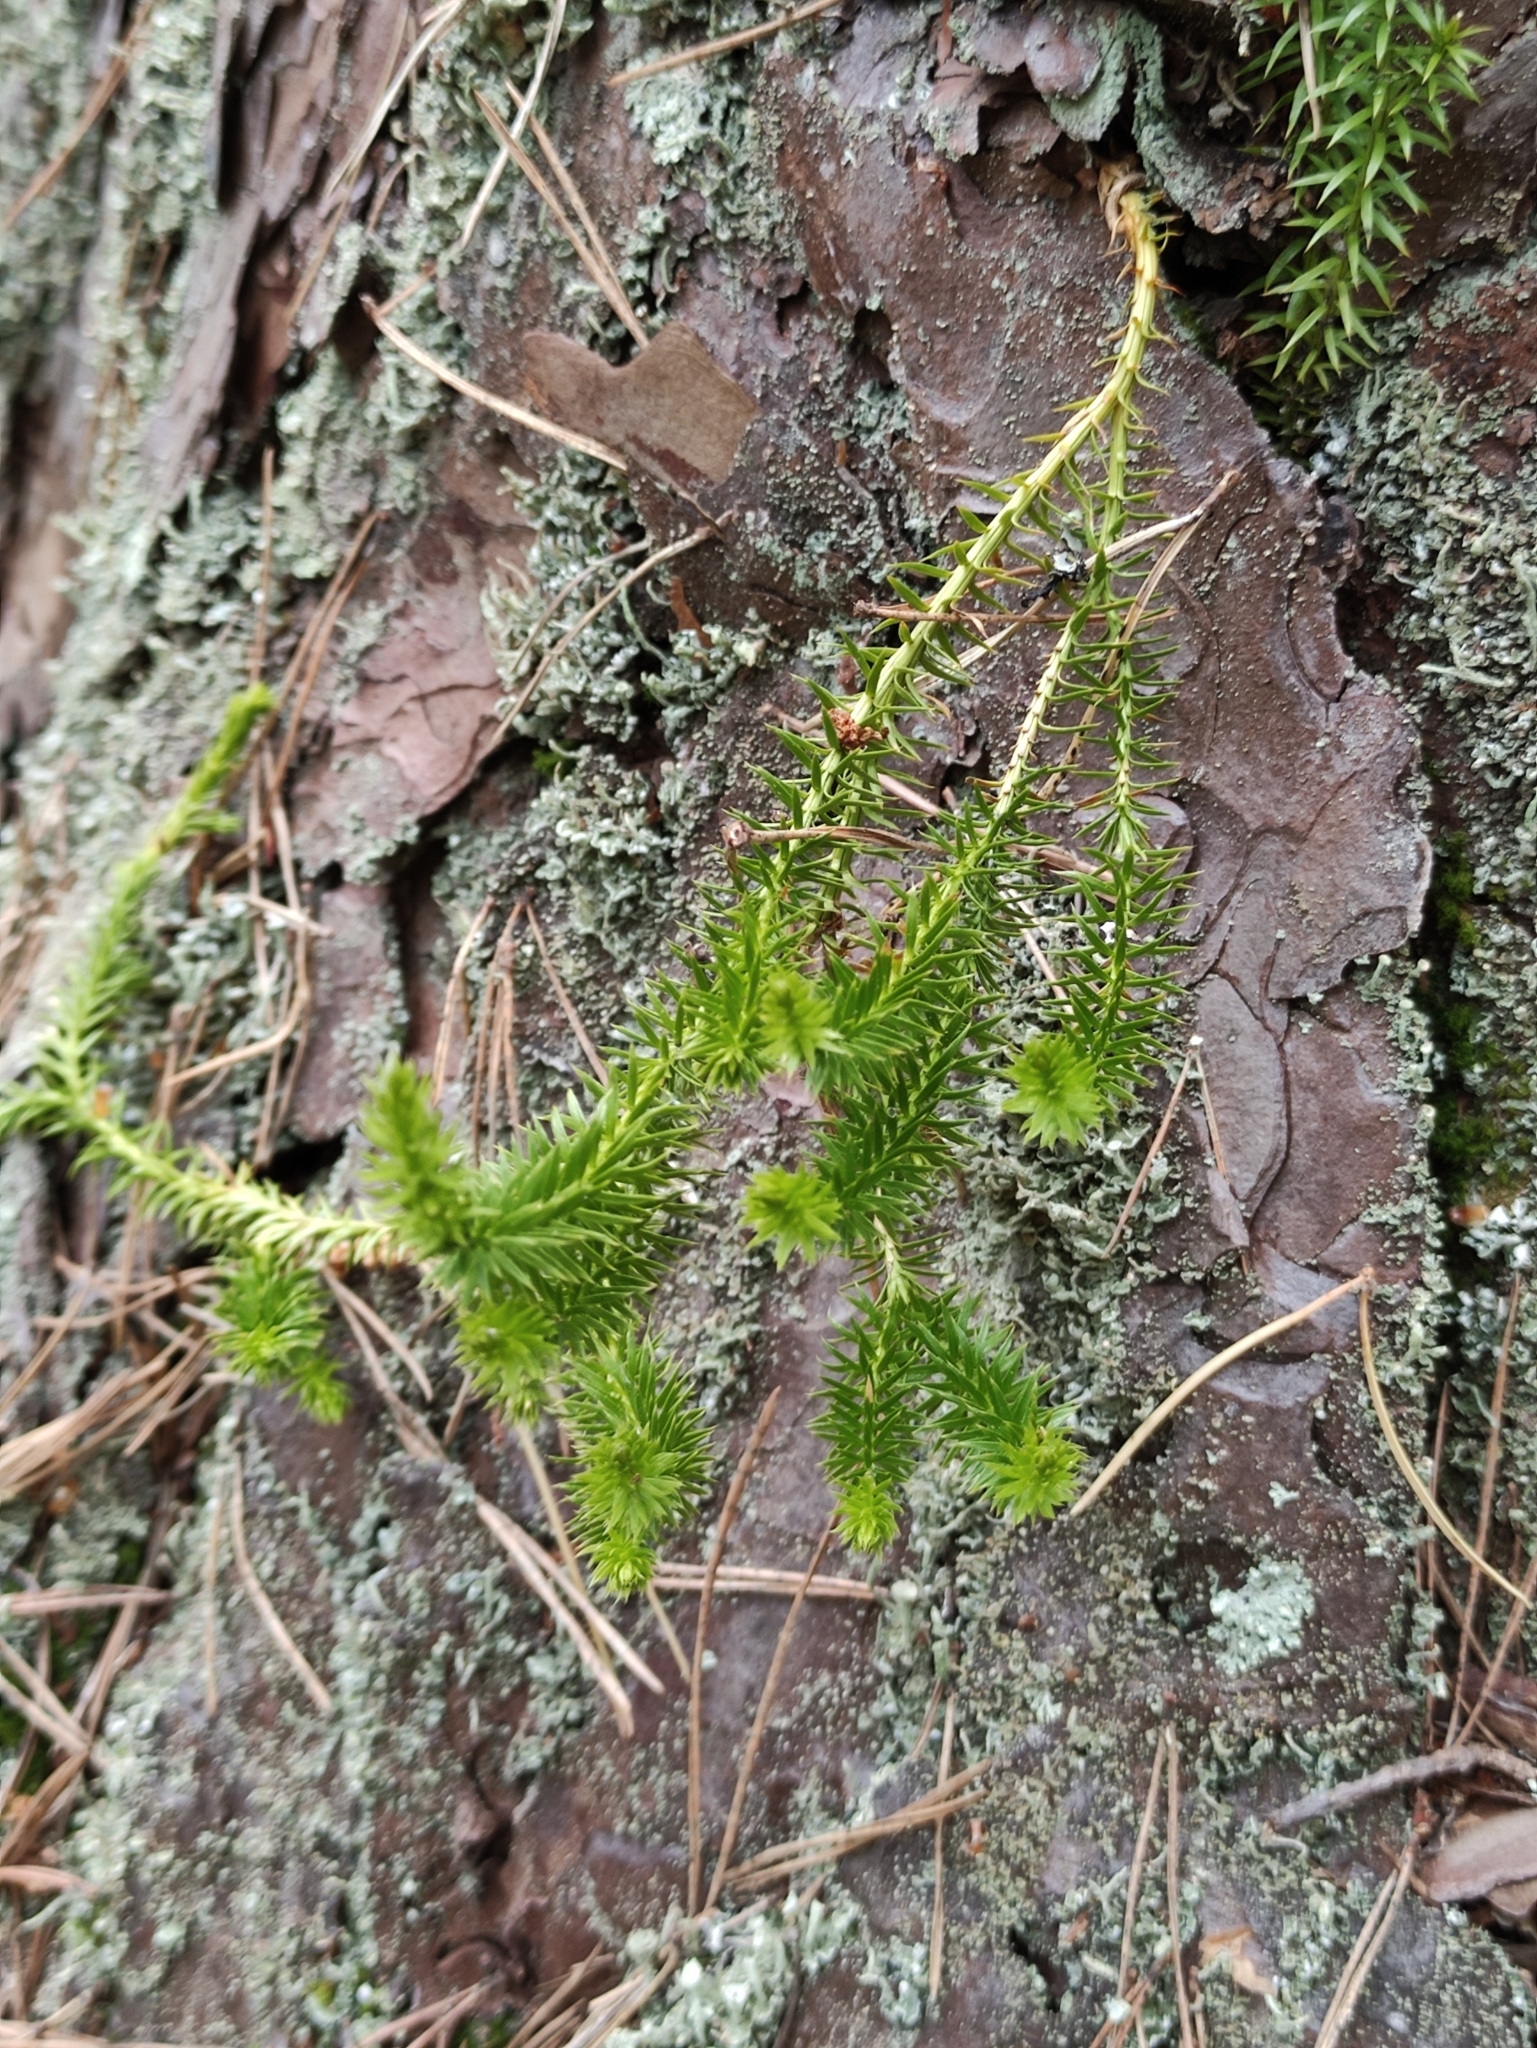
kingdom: Plantae
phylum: Tracheophyta
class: Lycopodiopsida
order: Lycopodiales
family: Lycopodiaceae
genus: Spinulum
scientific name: Spinulum annotinum
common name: Interrupted club-moss
